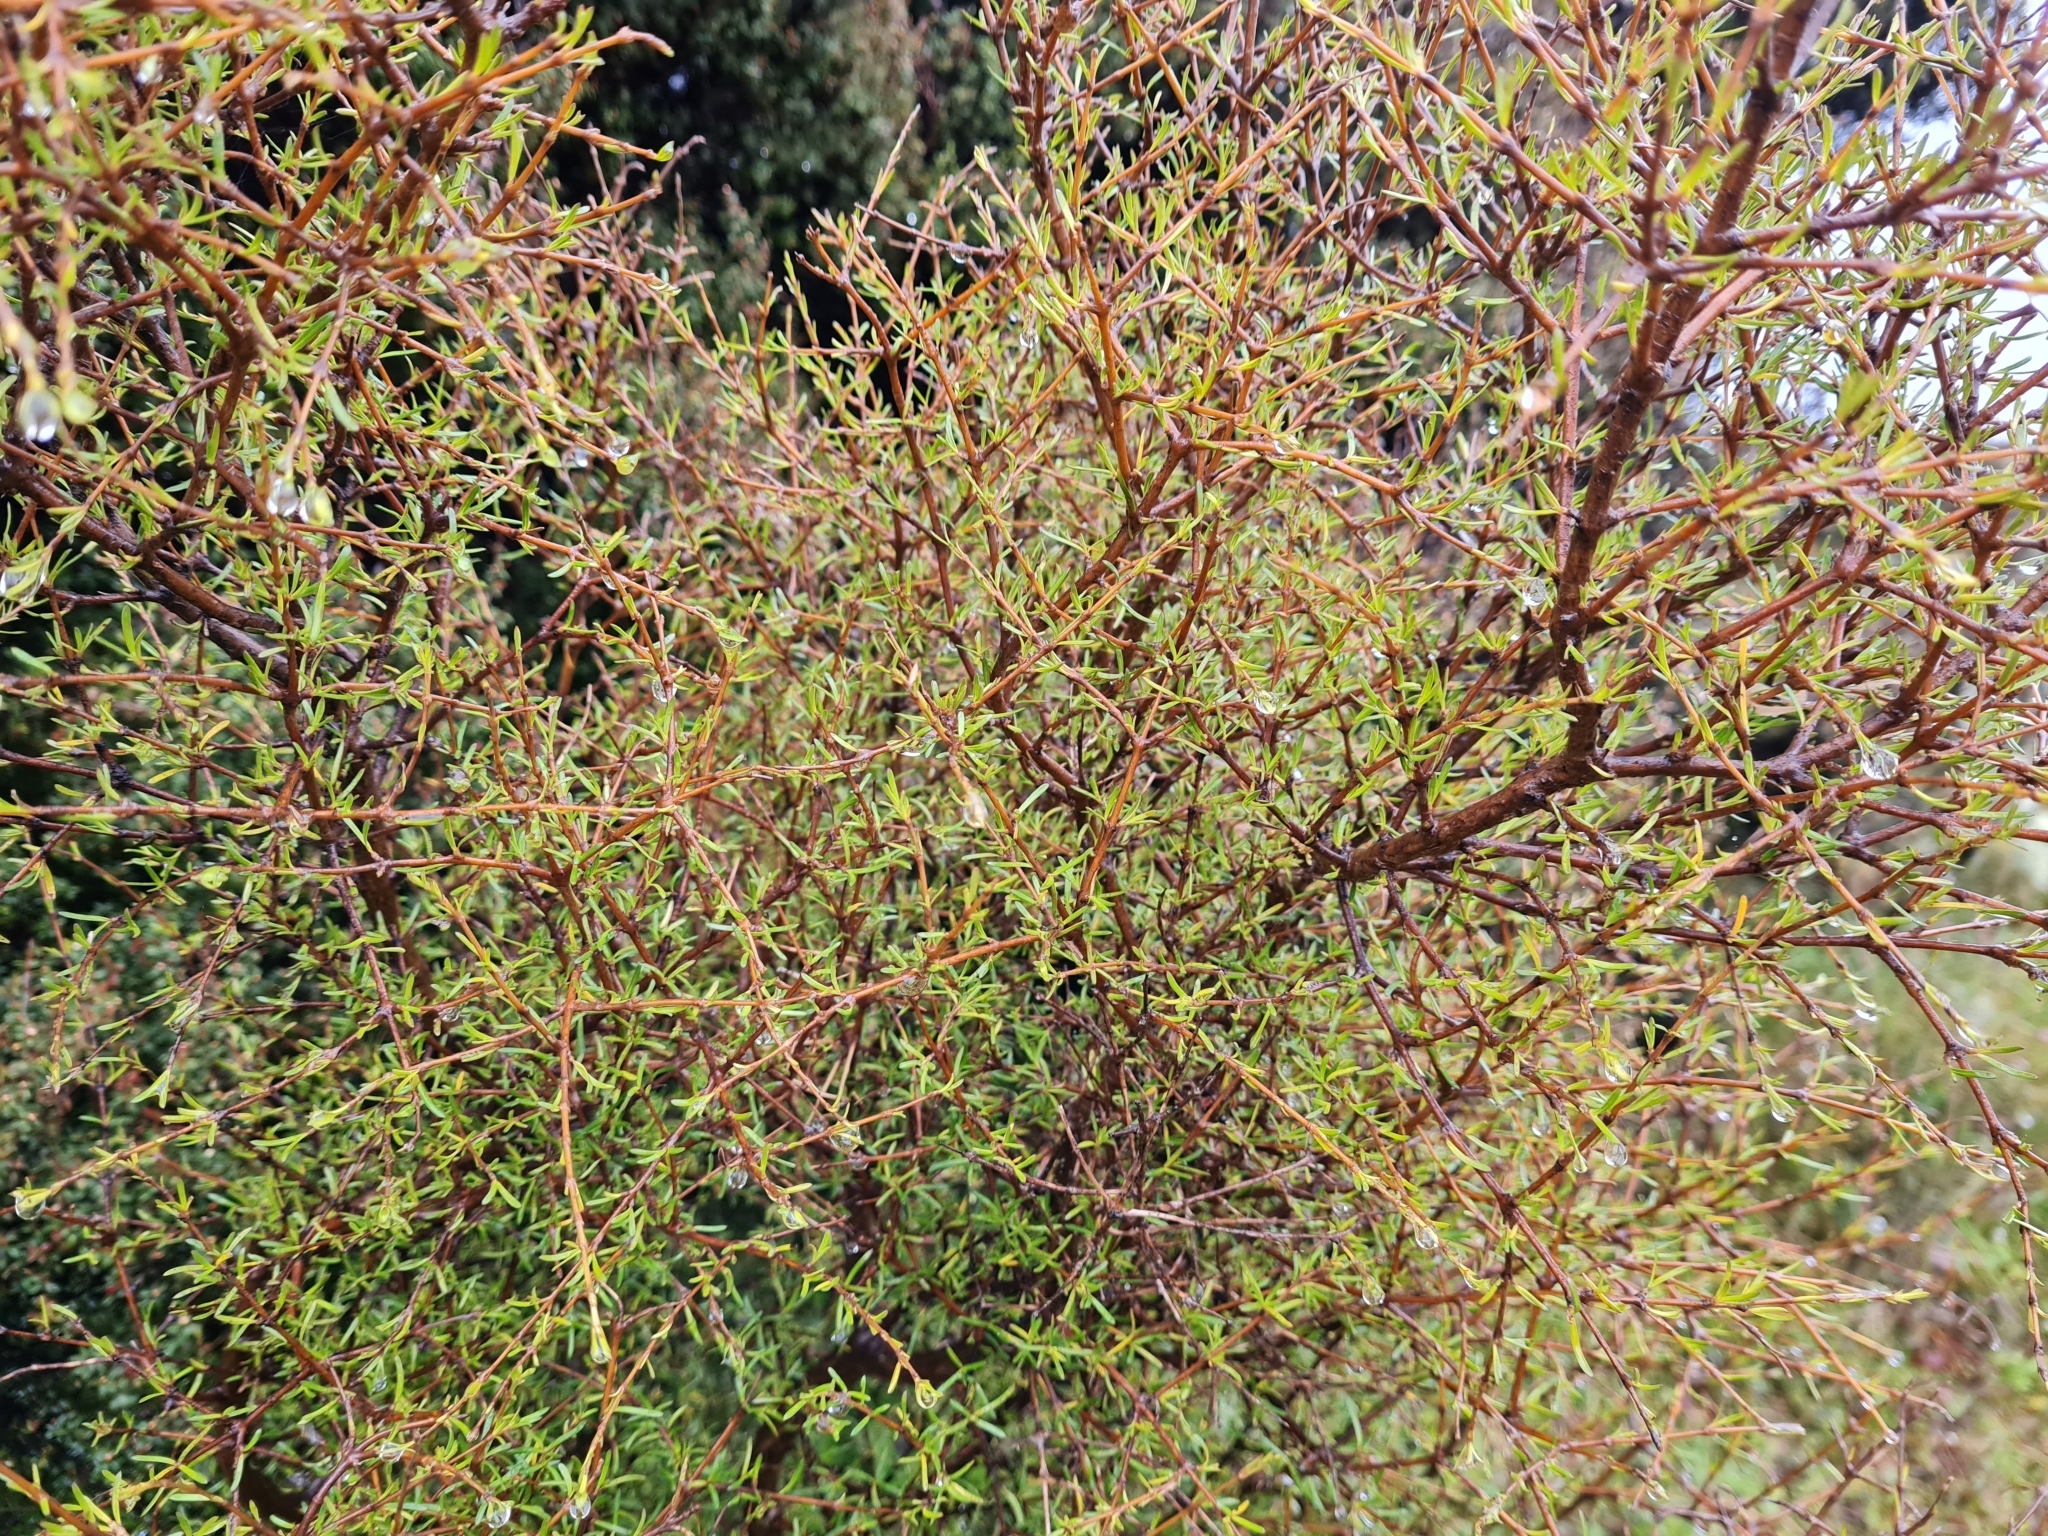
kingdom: Plantae
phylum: Tracheophyta
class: Magnoliopsida
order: Gentianales
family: Rubiaceae
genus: Coprosma
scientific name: Coprosma rugosa
